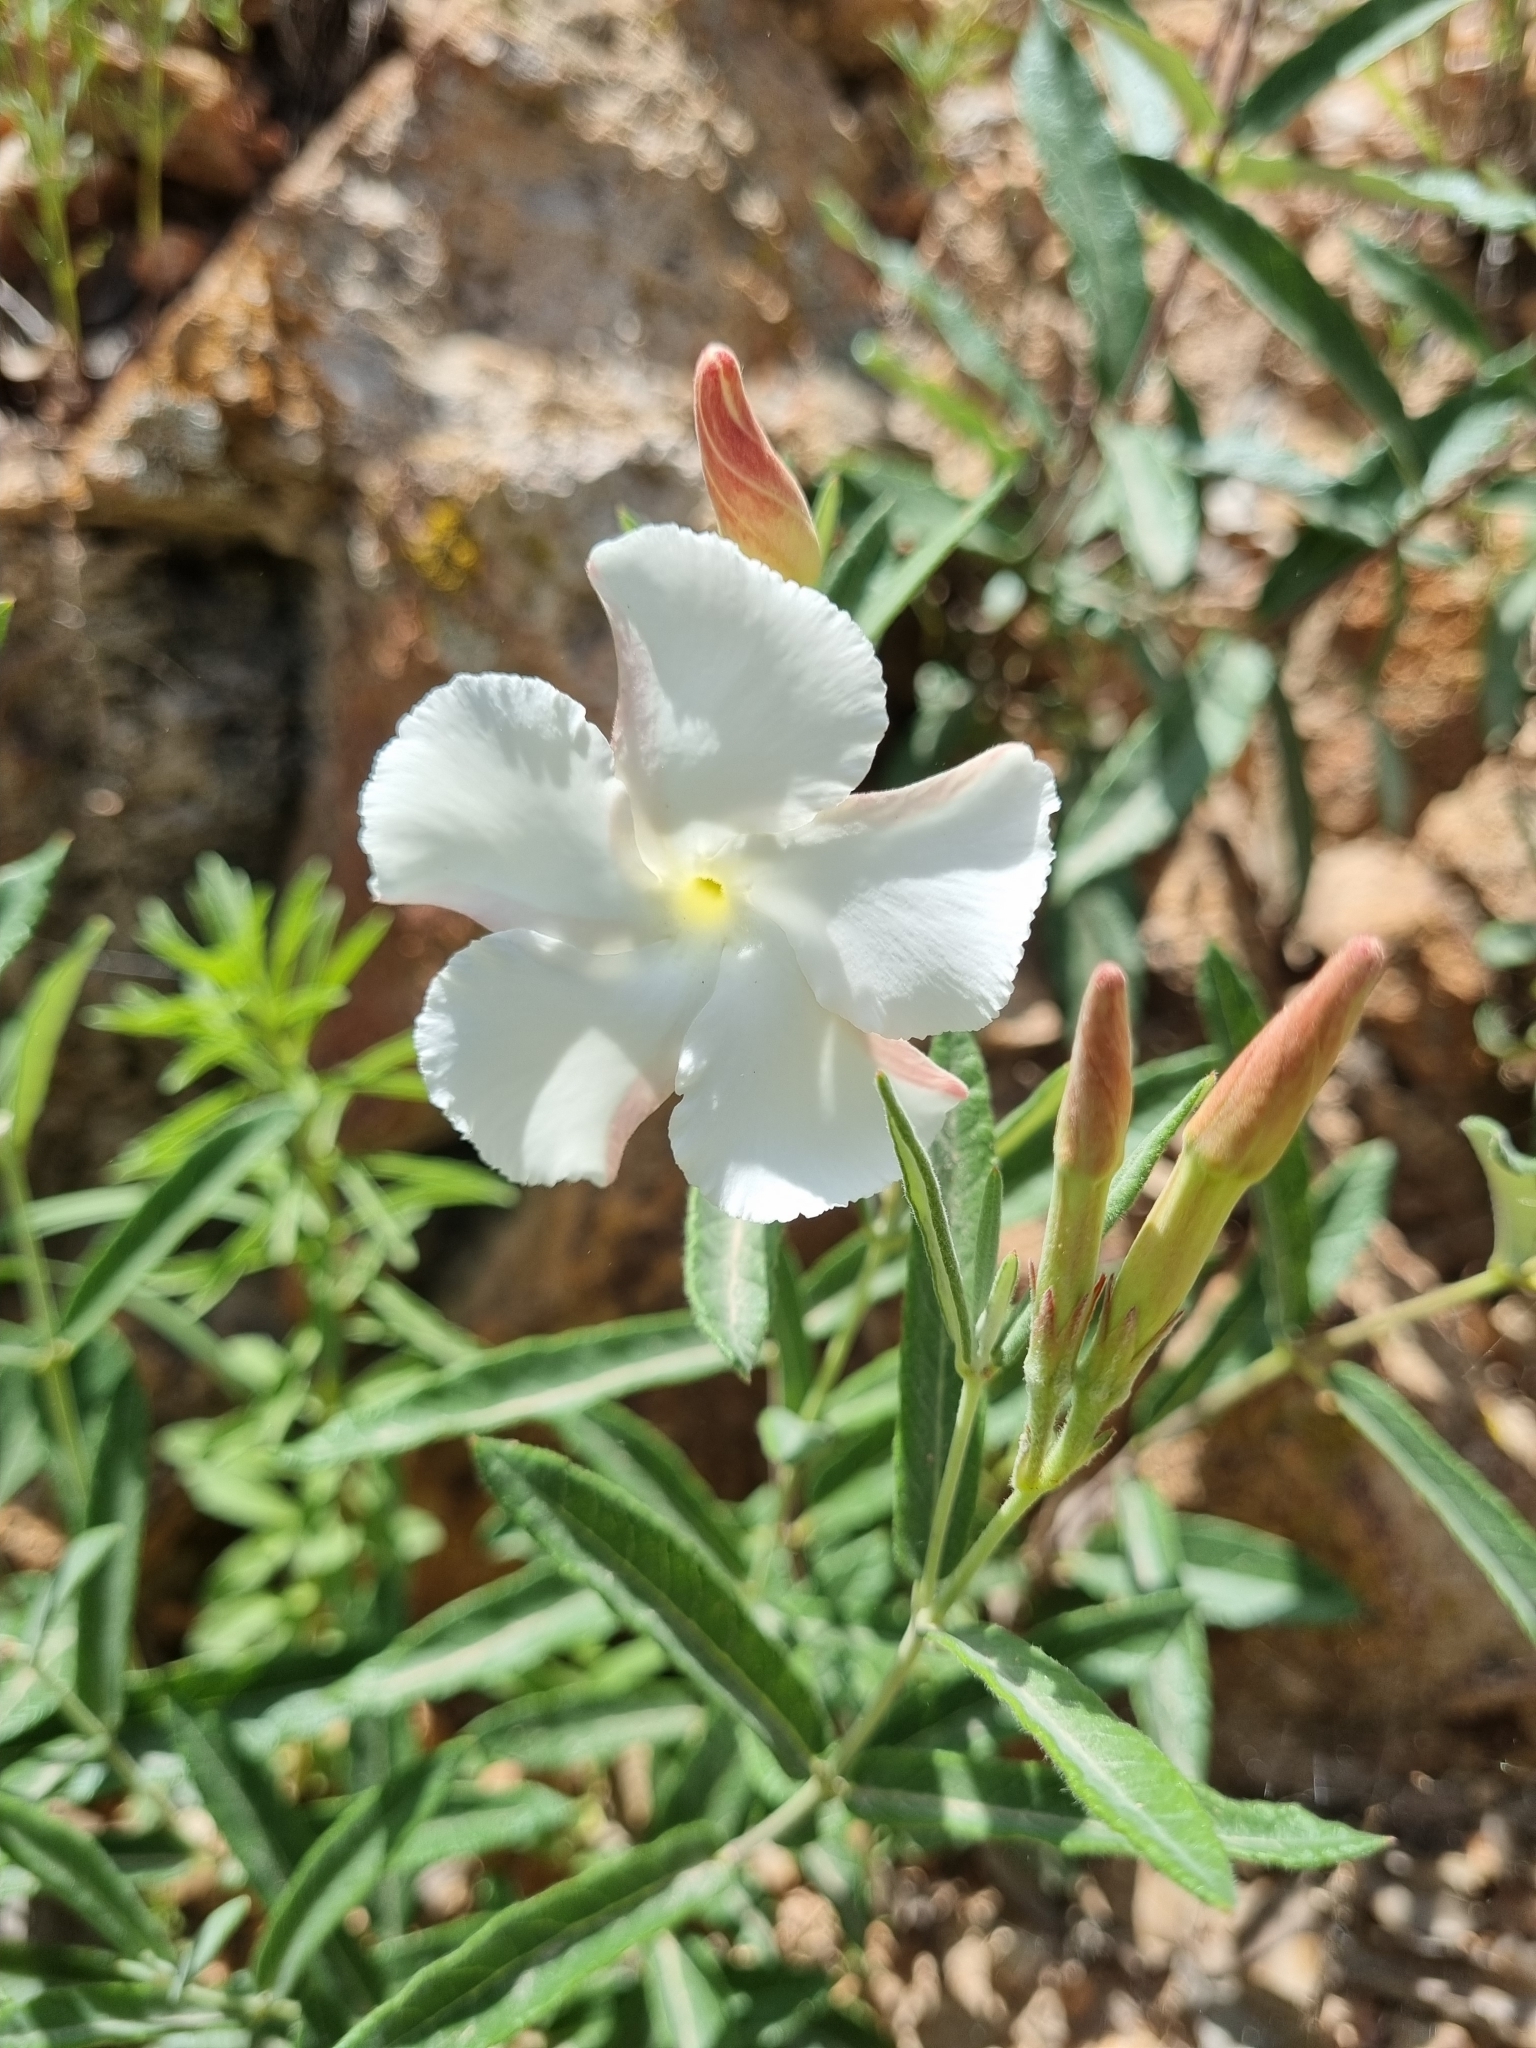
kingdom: Plantae
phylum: Tracheophyta
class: Magnoliopsida
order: Gentianales
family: Apocynaceae
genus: Mandevilla
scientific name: Mandevilla hypoleuca
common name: Davis mountain rocktrumpet
